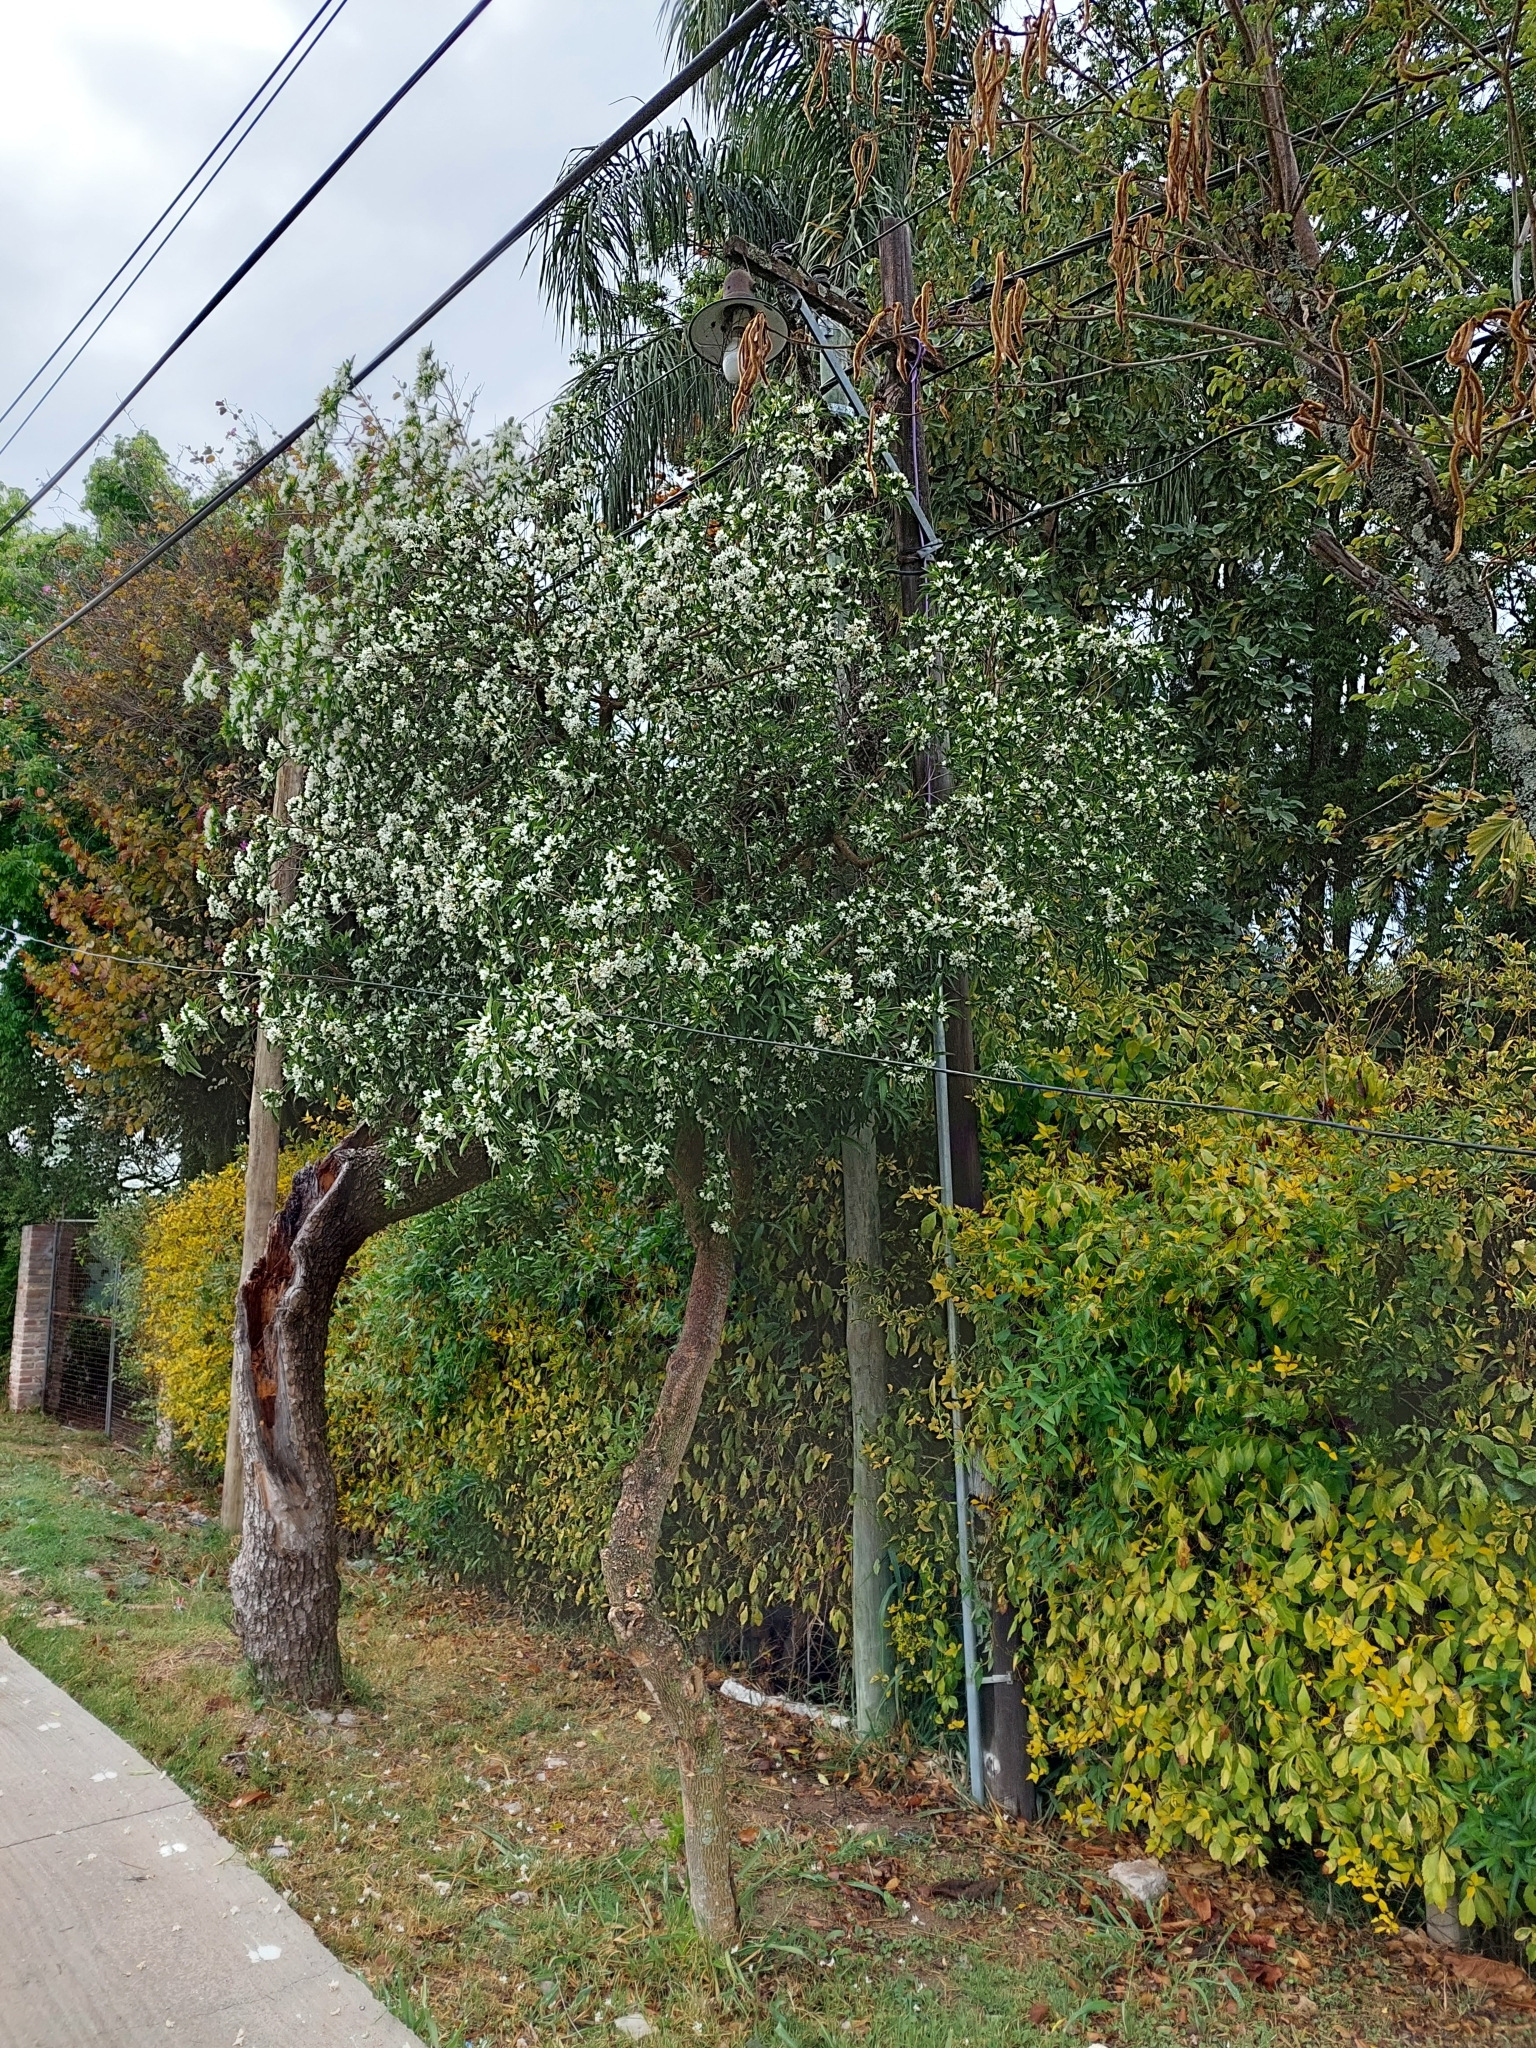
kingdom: Plantae
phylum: Tracheophyta
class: Magnoliopsida
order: Gentianales
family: Apocynaceae
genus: Tabernaemontana
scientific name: Tabernaemontana catharinensis
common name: Pinwheel-flower
